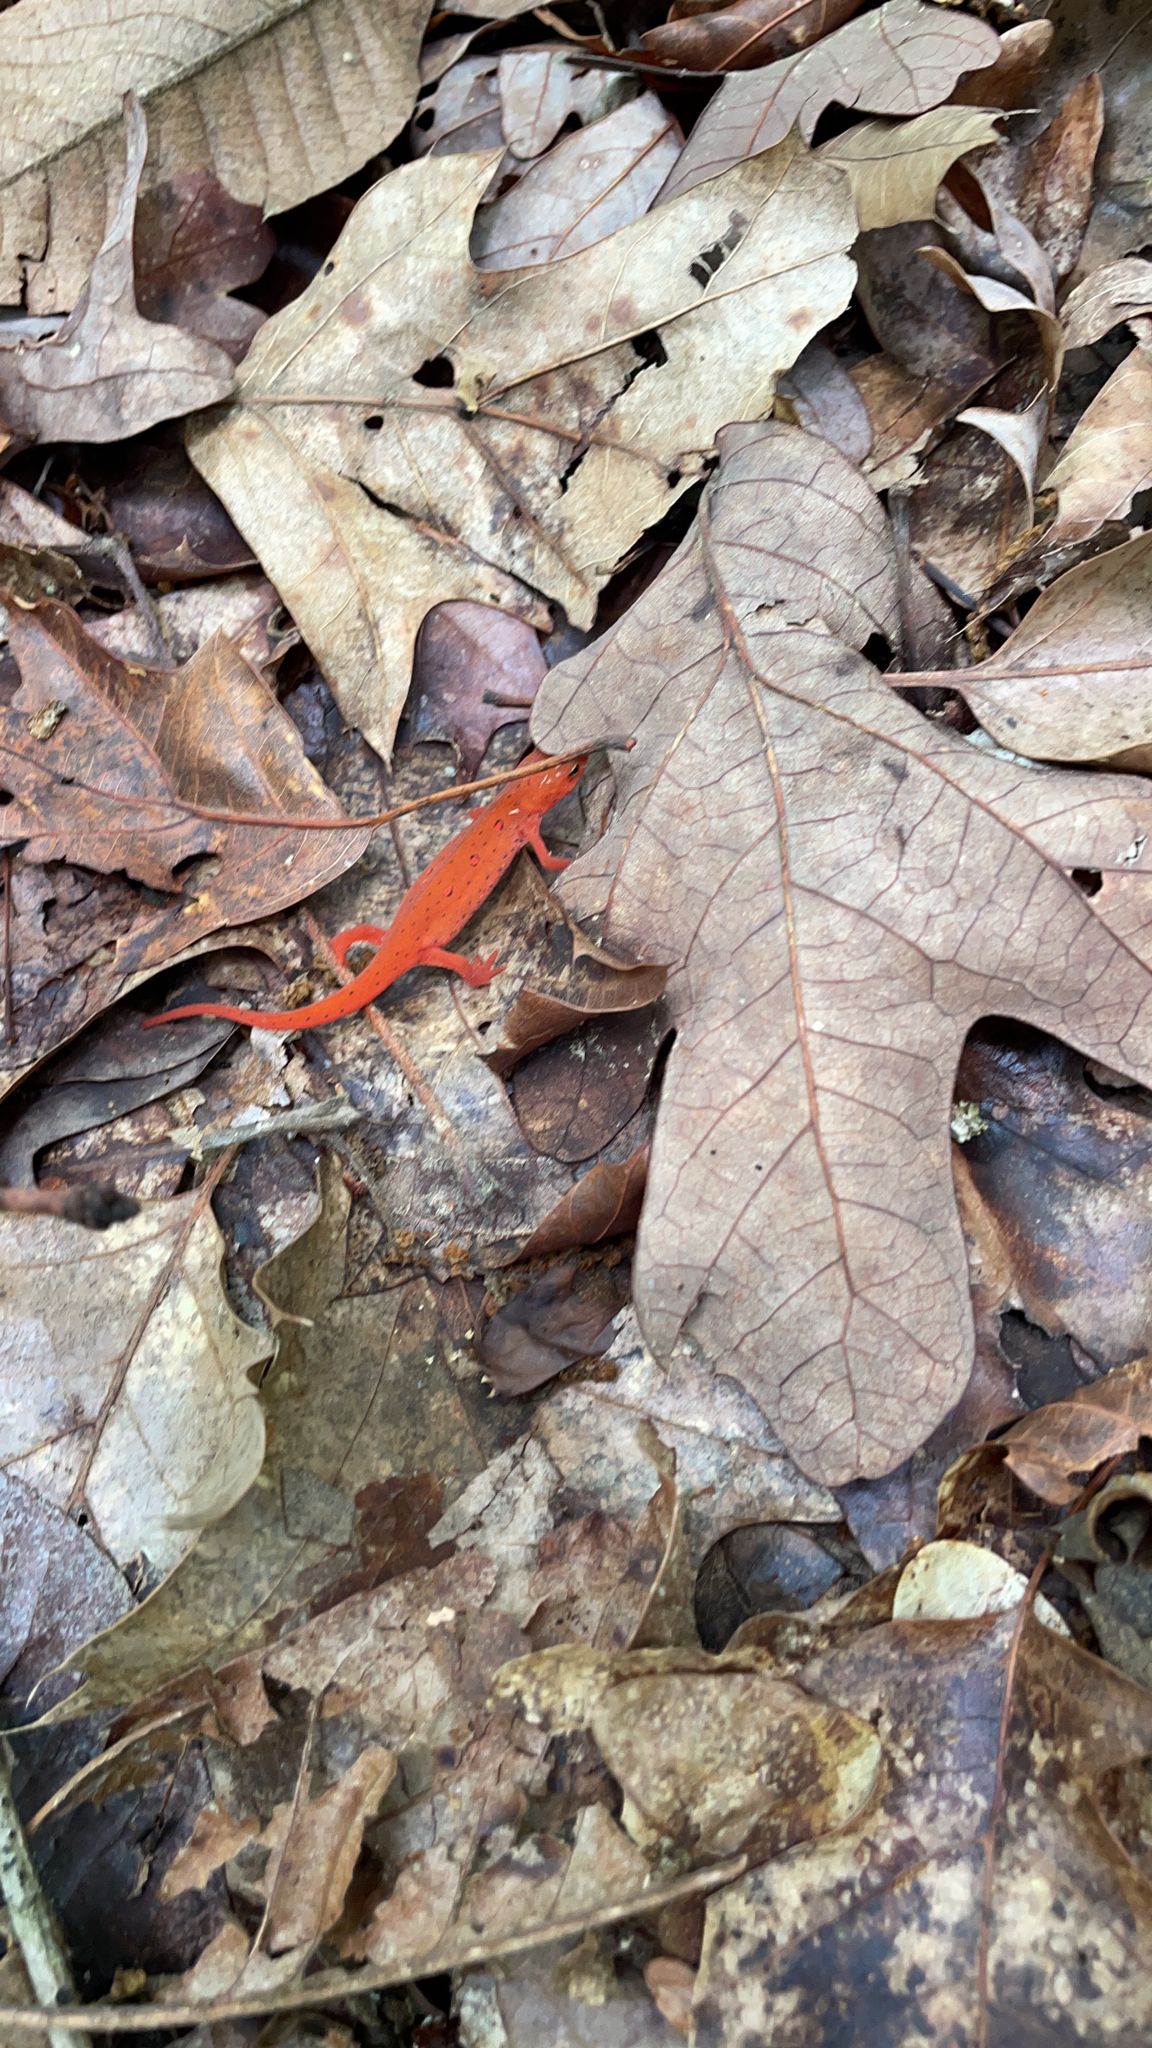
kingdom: Animalia
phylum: Chordata
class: Amphibia
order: Caudata
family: Salamandridae
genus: Notophthalmus
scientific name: Notophthalmus viridescens
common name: Eastern newt
